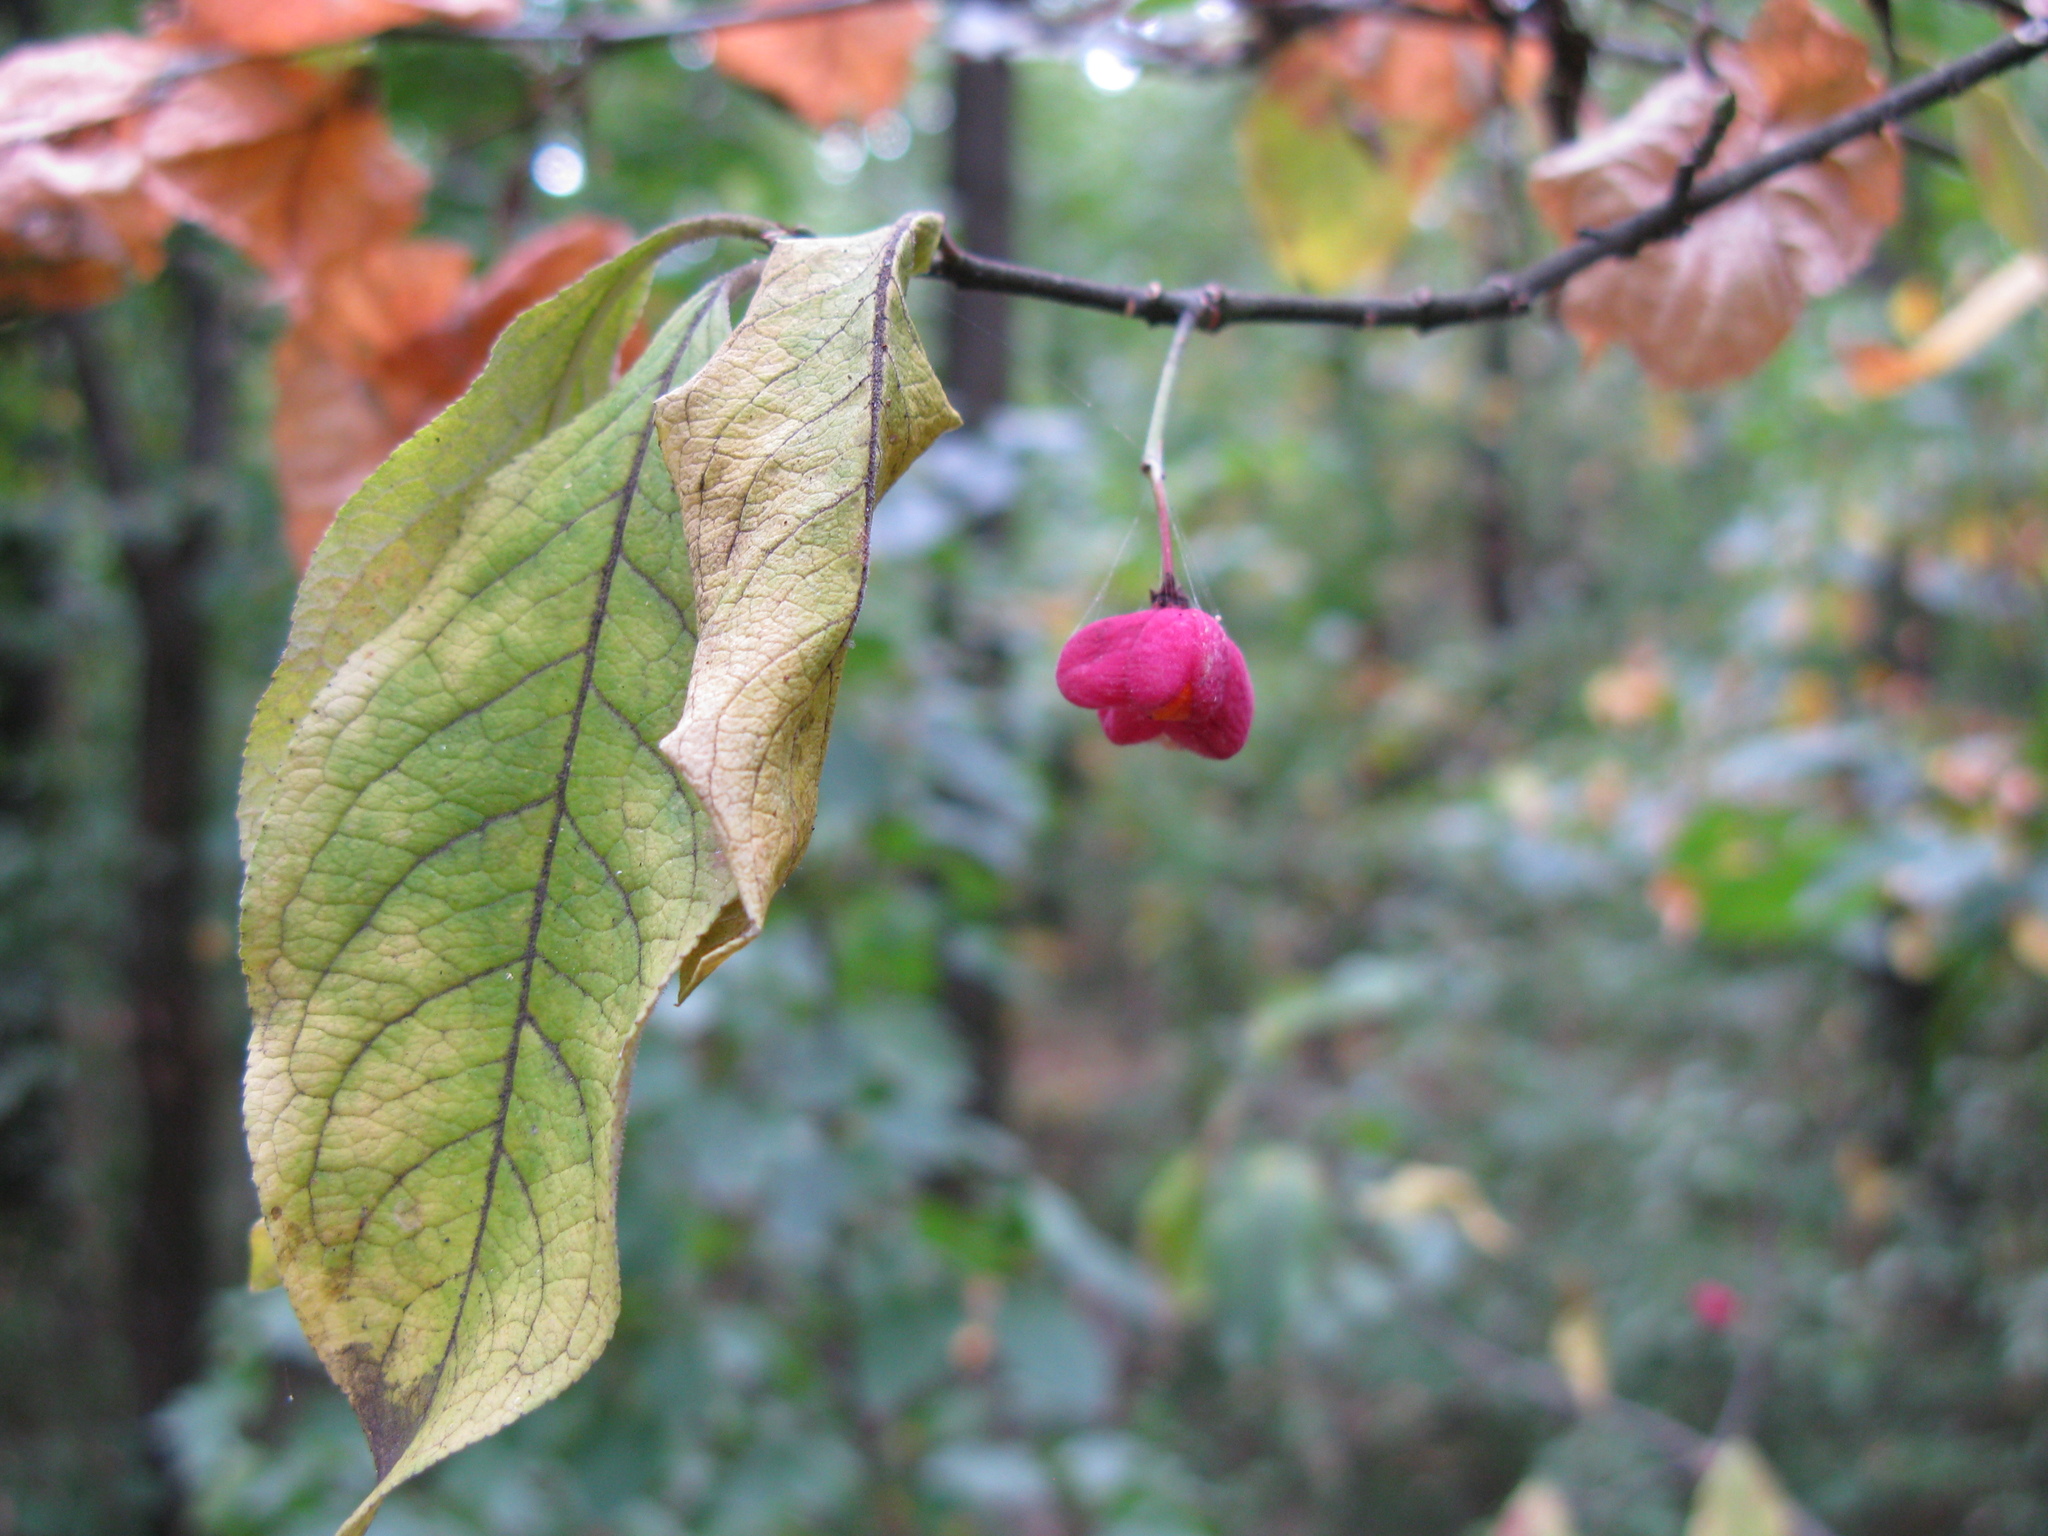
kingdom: Plantae
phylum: Tracheophyta
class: Magnoliopsida
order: Celastrales
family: Celastraceae
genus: Euonymus
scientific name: Euonymus europaeus
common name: Spindle
